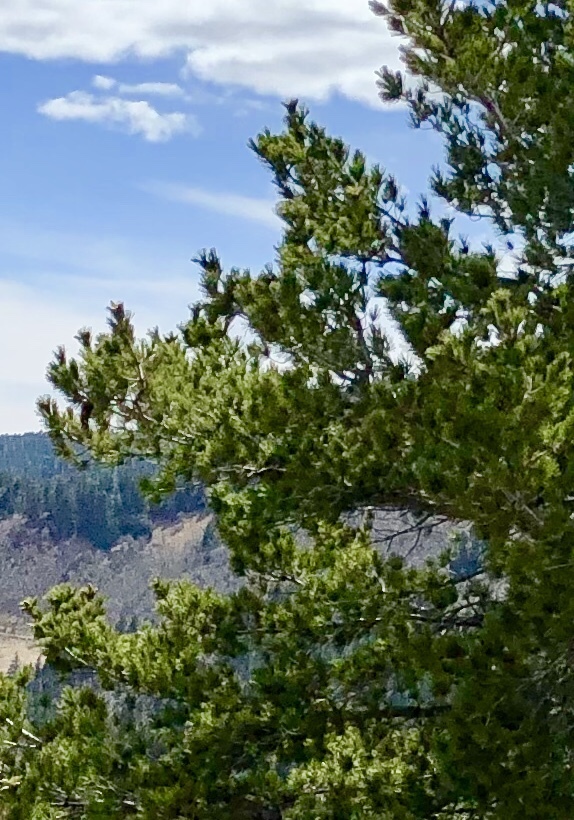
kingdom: Plantae
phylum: Tracheophyta
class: Pinopsida
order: Pinales
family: Pinaceae
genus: Pinus
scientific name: Pinus strobiformis
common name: Southwestern white pine
